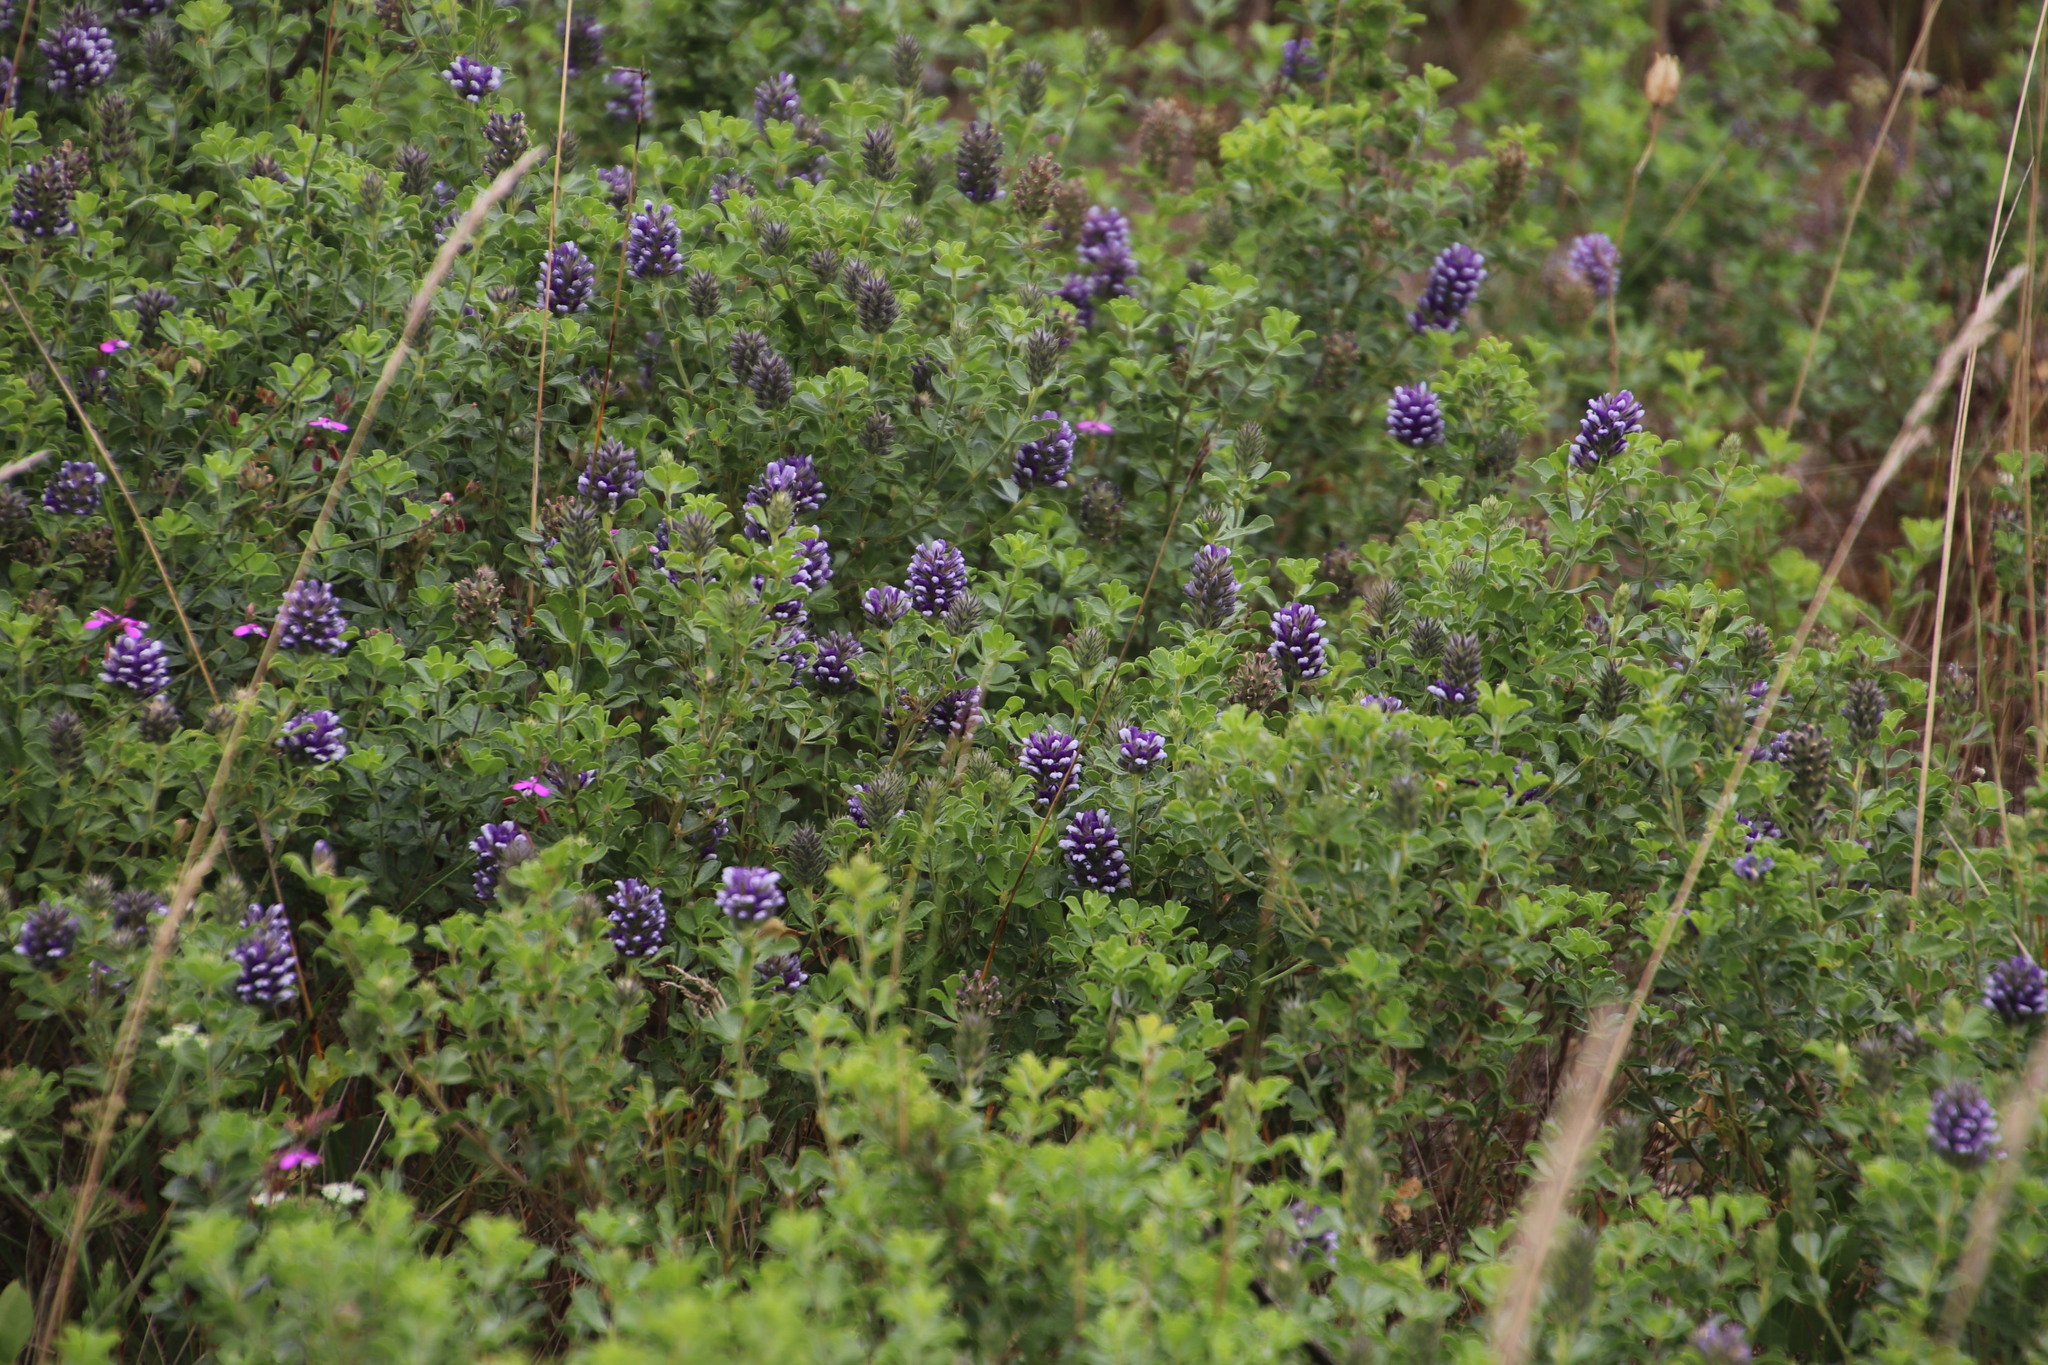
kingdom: Plantae
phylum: Tracheophyta
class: Magnoliopsida
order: Fabales
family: Fabaceae
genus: Psoralea
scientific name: Psoralea bracteolata
